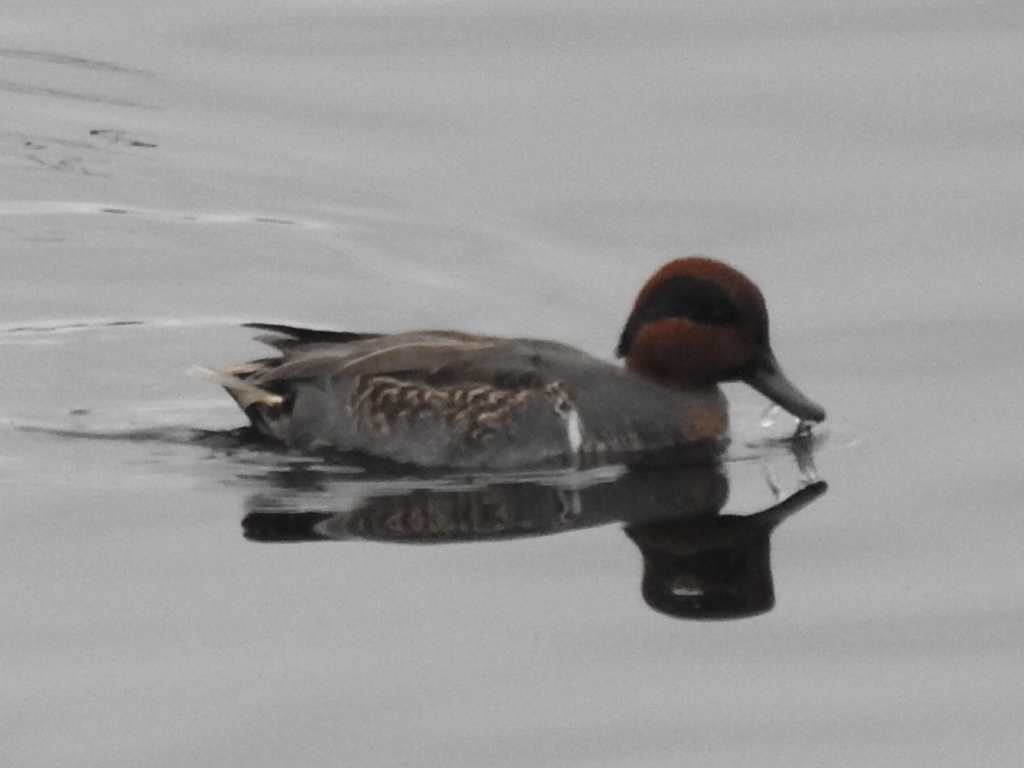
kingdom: Animalia
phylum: Chordata
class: Aves
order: Anseriformes
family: Anatidae
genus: Anas
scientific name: Anas crecca
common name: Eurasian teal
